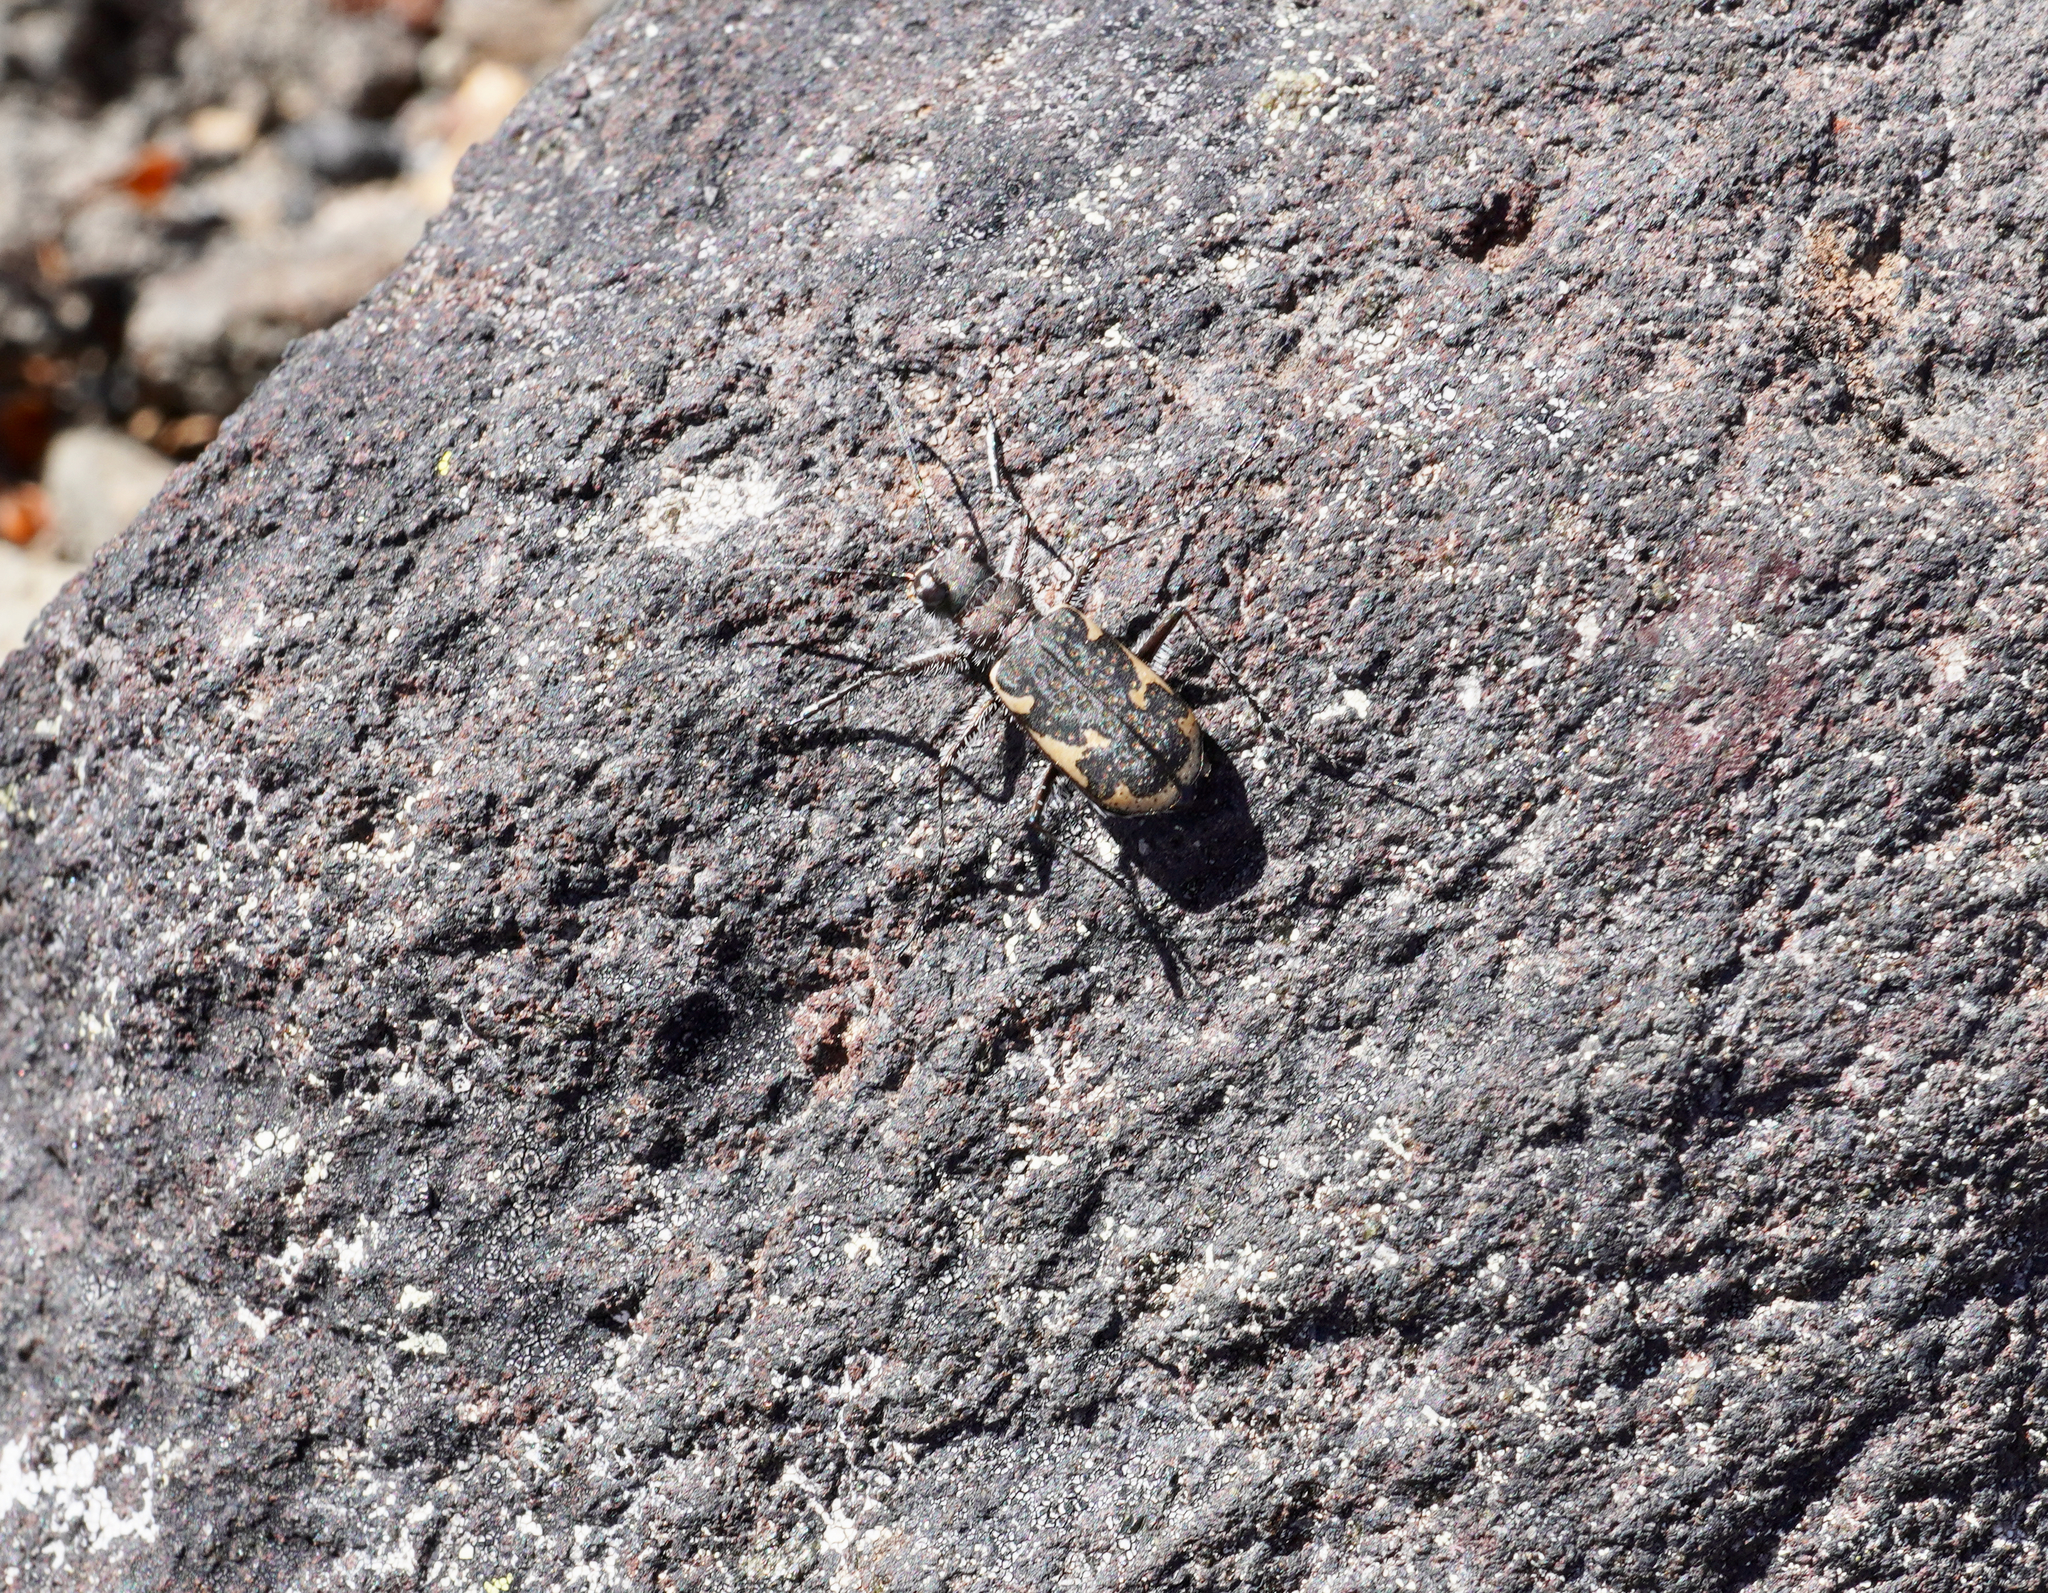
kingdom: Animalia
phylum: Arthropoda
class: Insecta
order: Coleoptera
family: Carabidae
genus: Zecicindela
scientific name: Zecicindela helmsi
